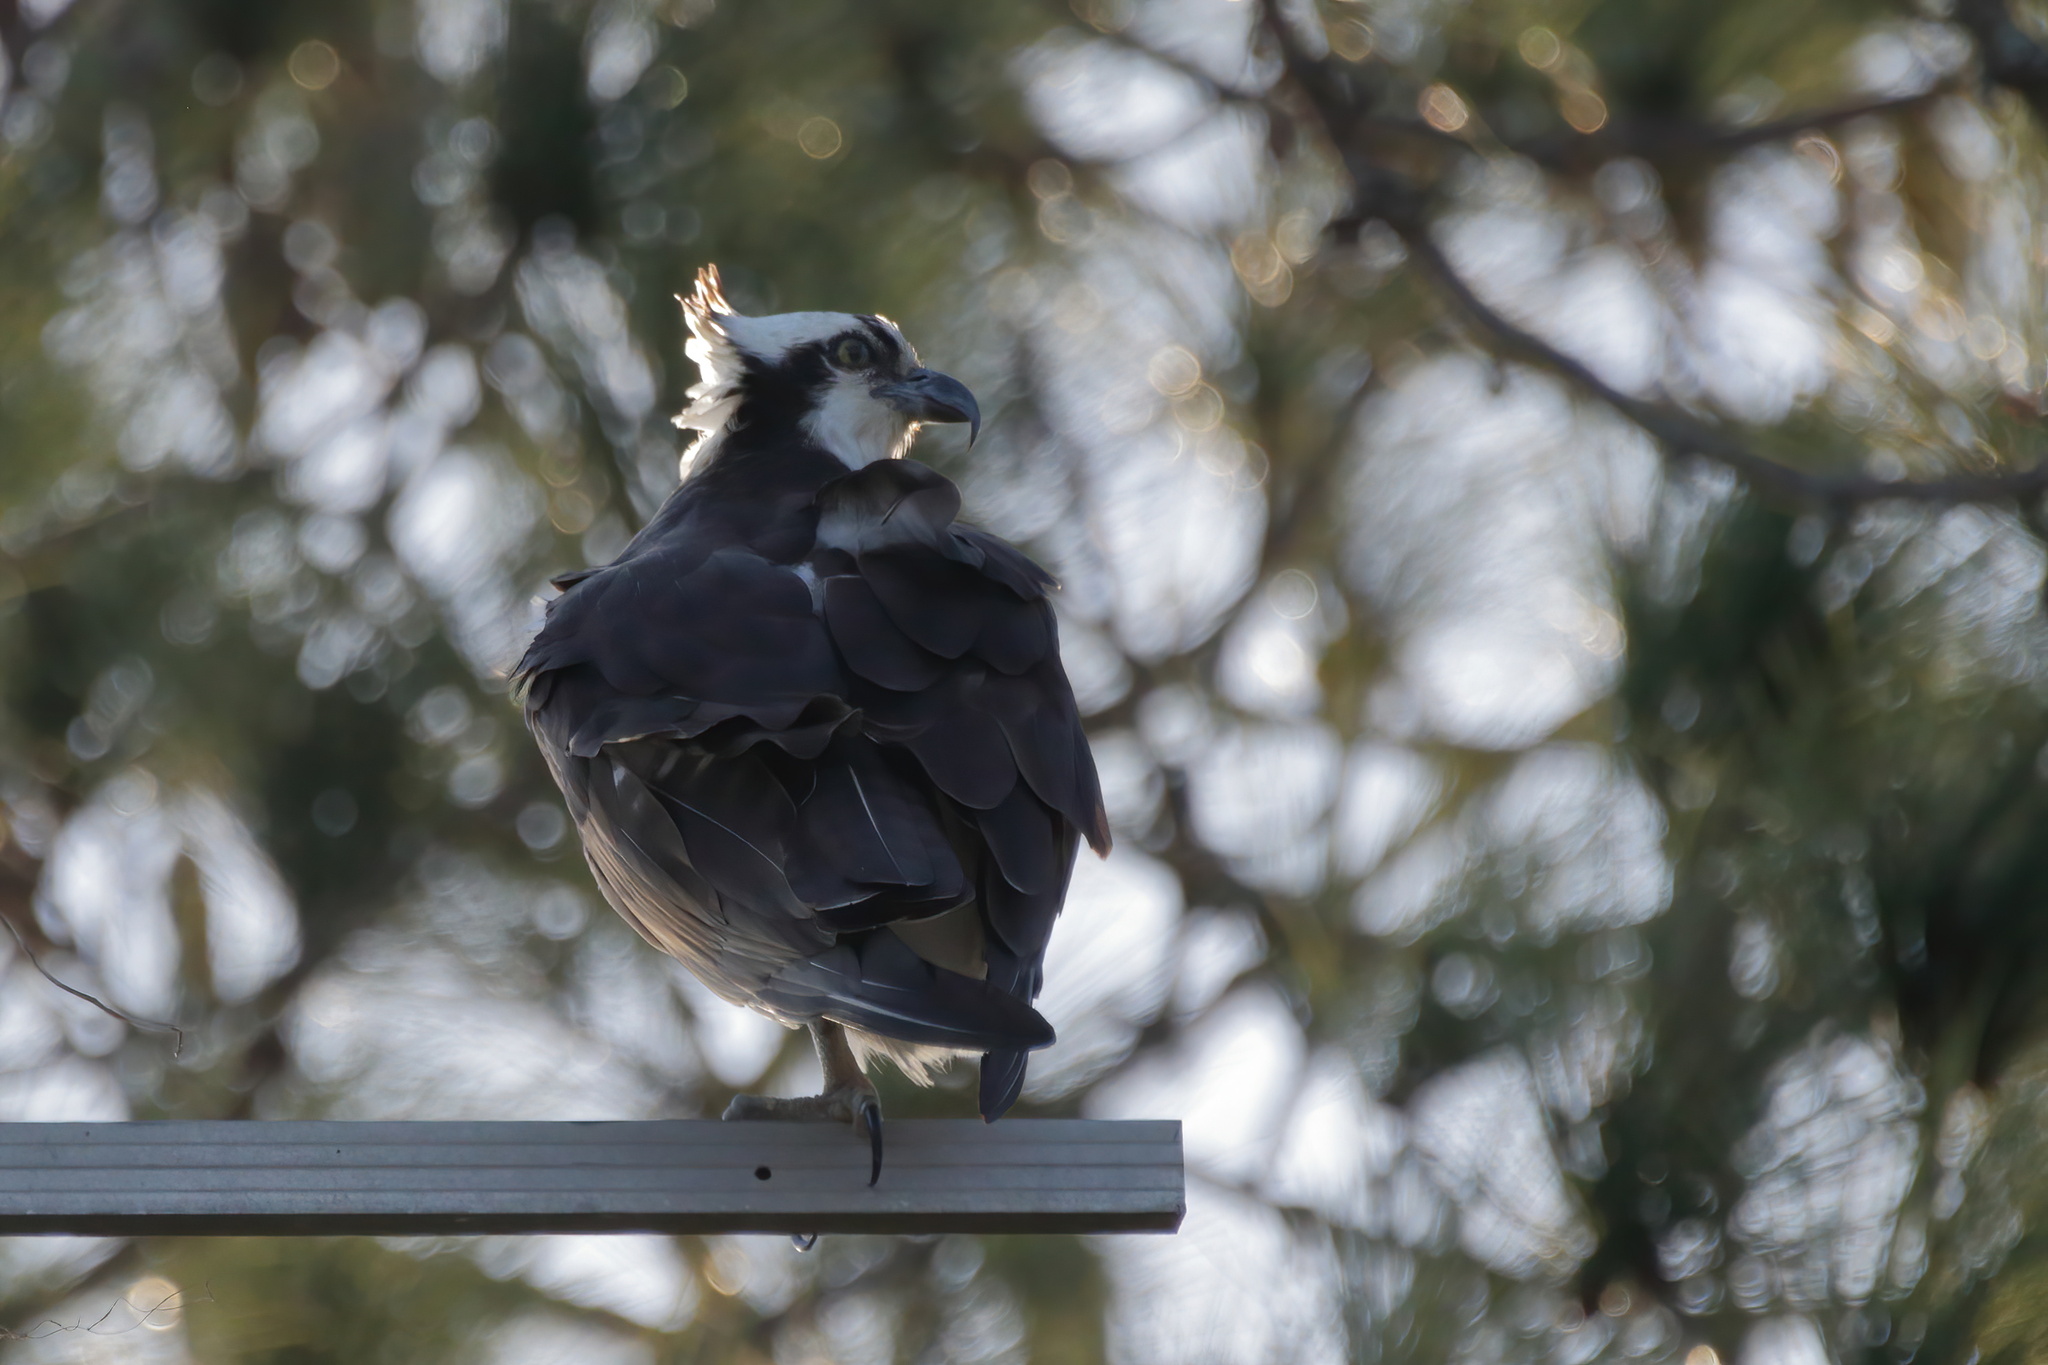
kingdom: Animalia
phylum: Chordata
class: Aves
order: Accipitriformes
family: Pandionidae
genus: Pandion
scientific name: Pandion haliaetus
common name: Osprey
